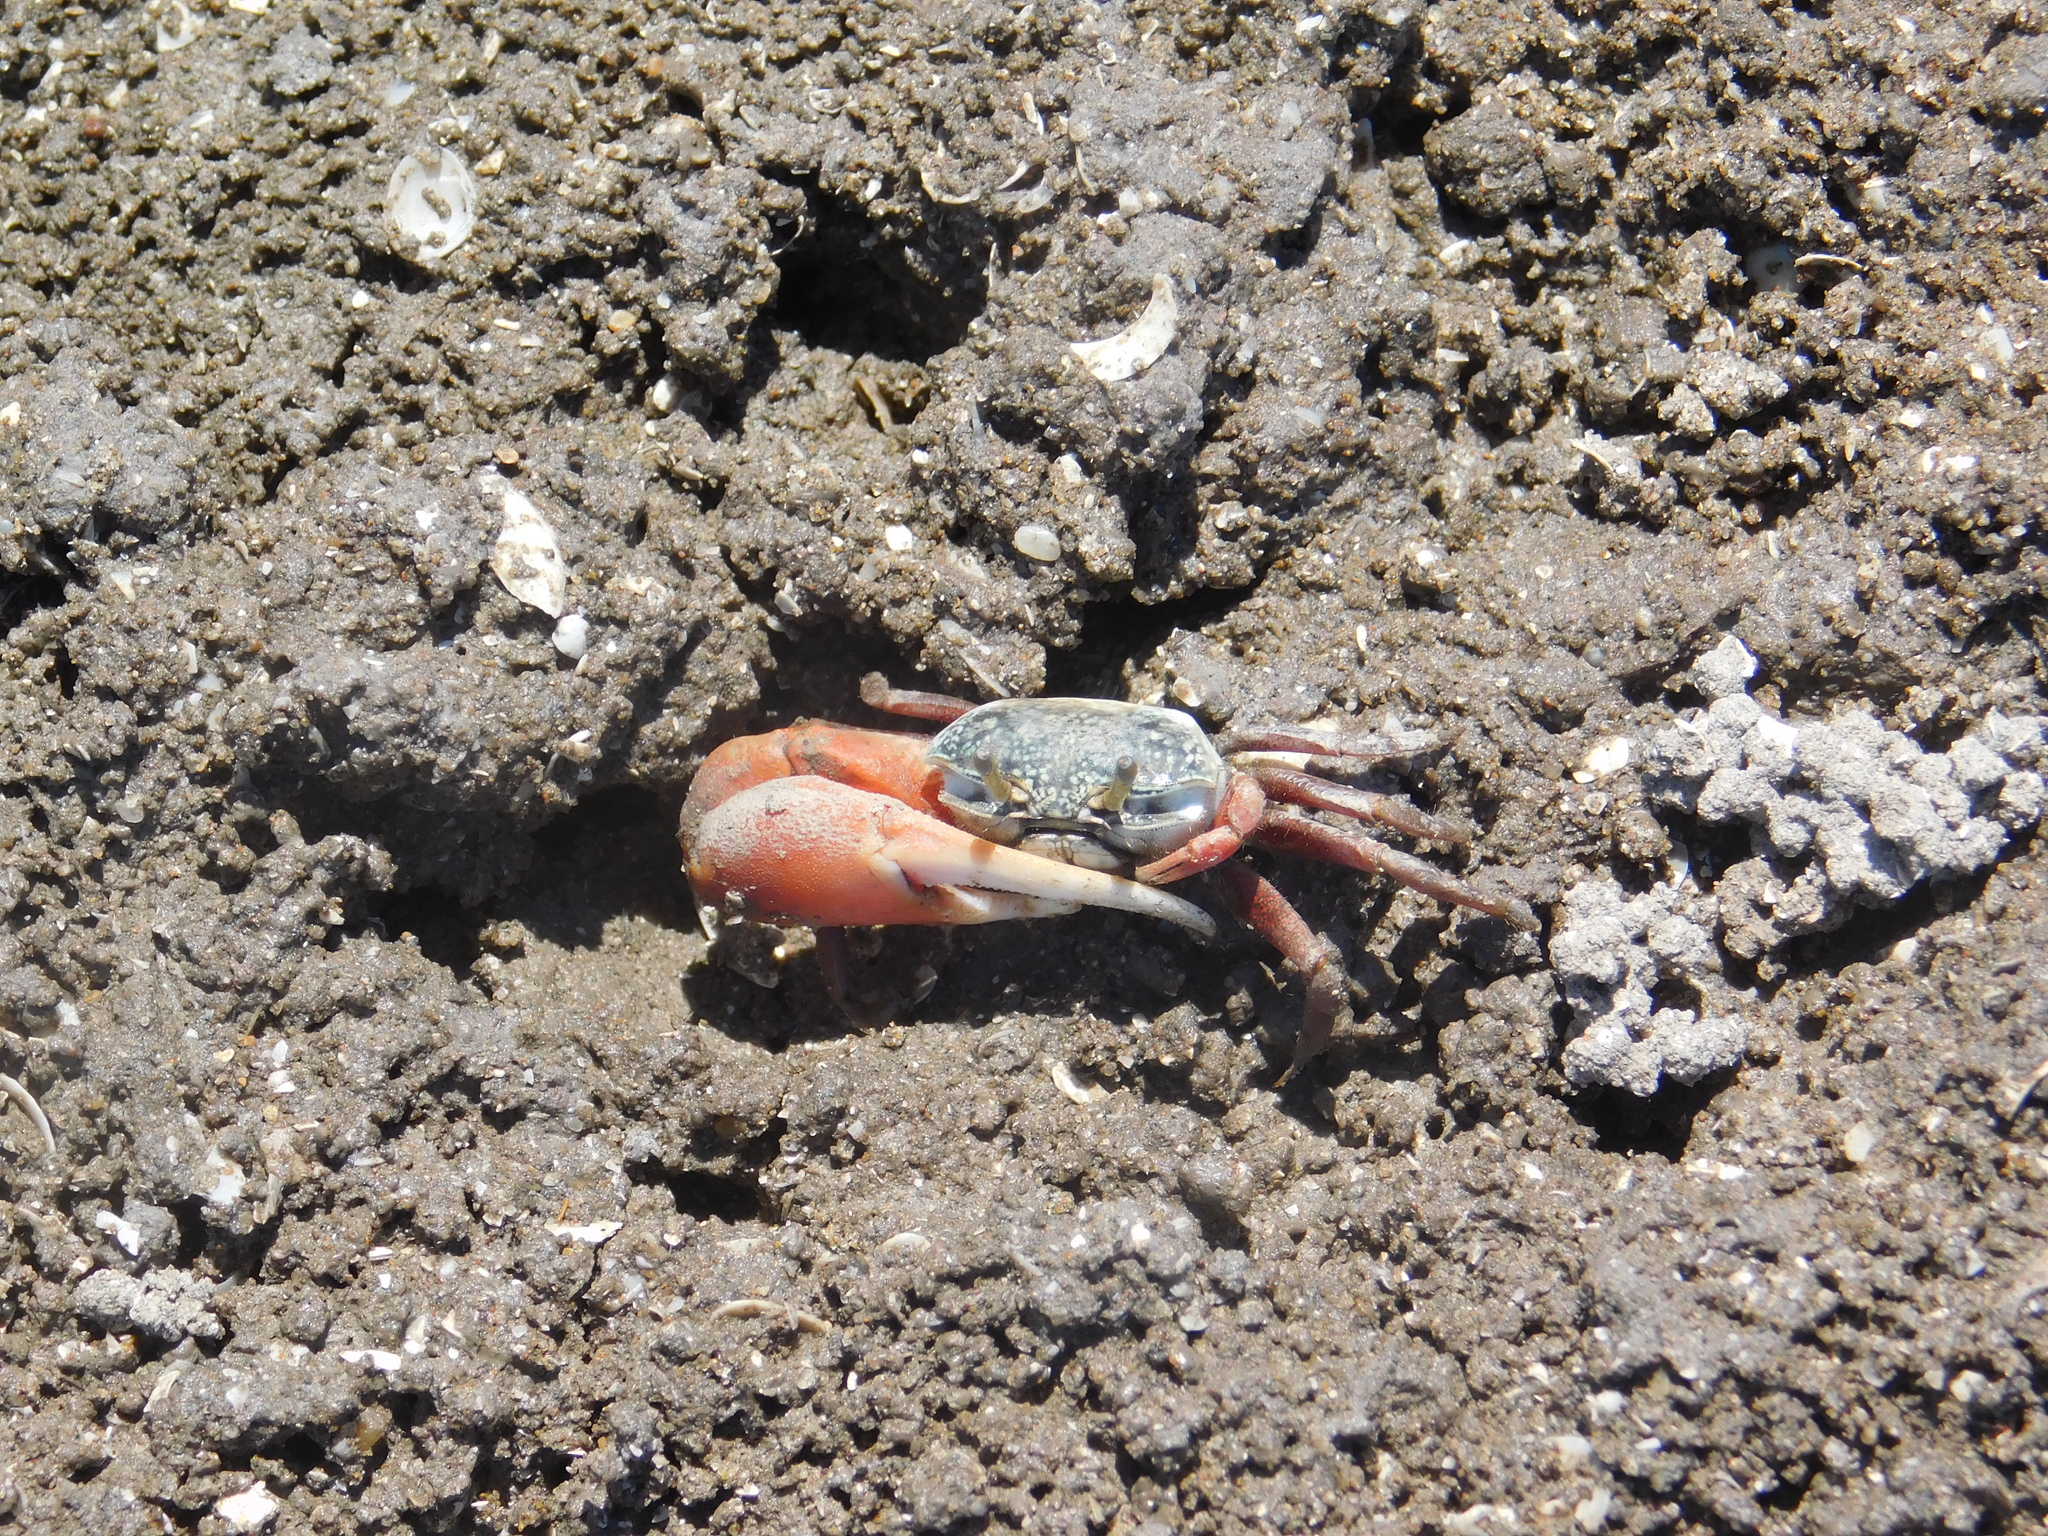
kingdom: Animalia
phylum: Arthropoda
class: Malacostraca
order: Decapoda
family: Ocypodidae
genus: Leptuca
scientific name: Leptuca uruguayensis
